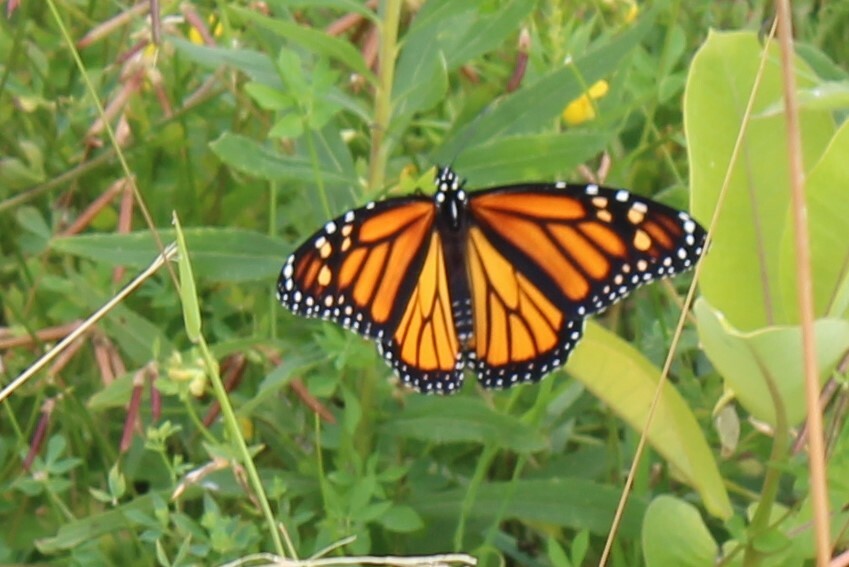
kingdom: Animalia
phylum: Arthropoda
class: Insecta
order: Lepidoptera
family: Nymphalidae
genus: Danaus
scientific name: Danaus plexippus
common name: Monarch
